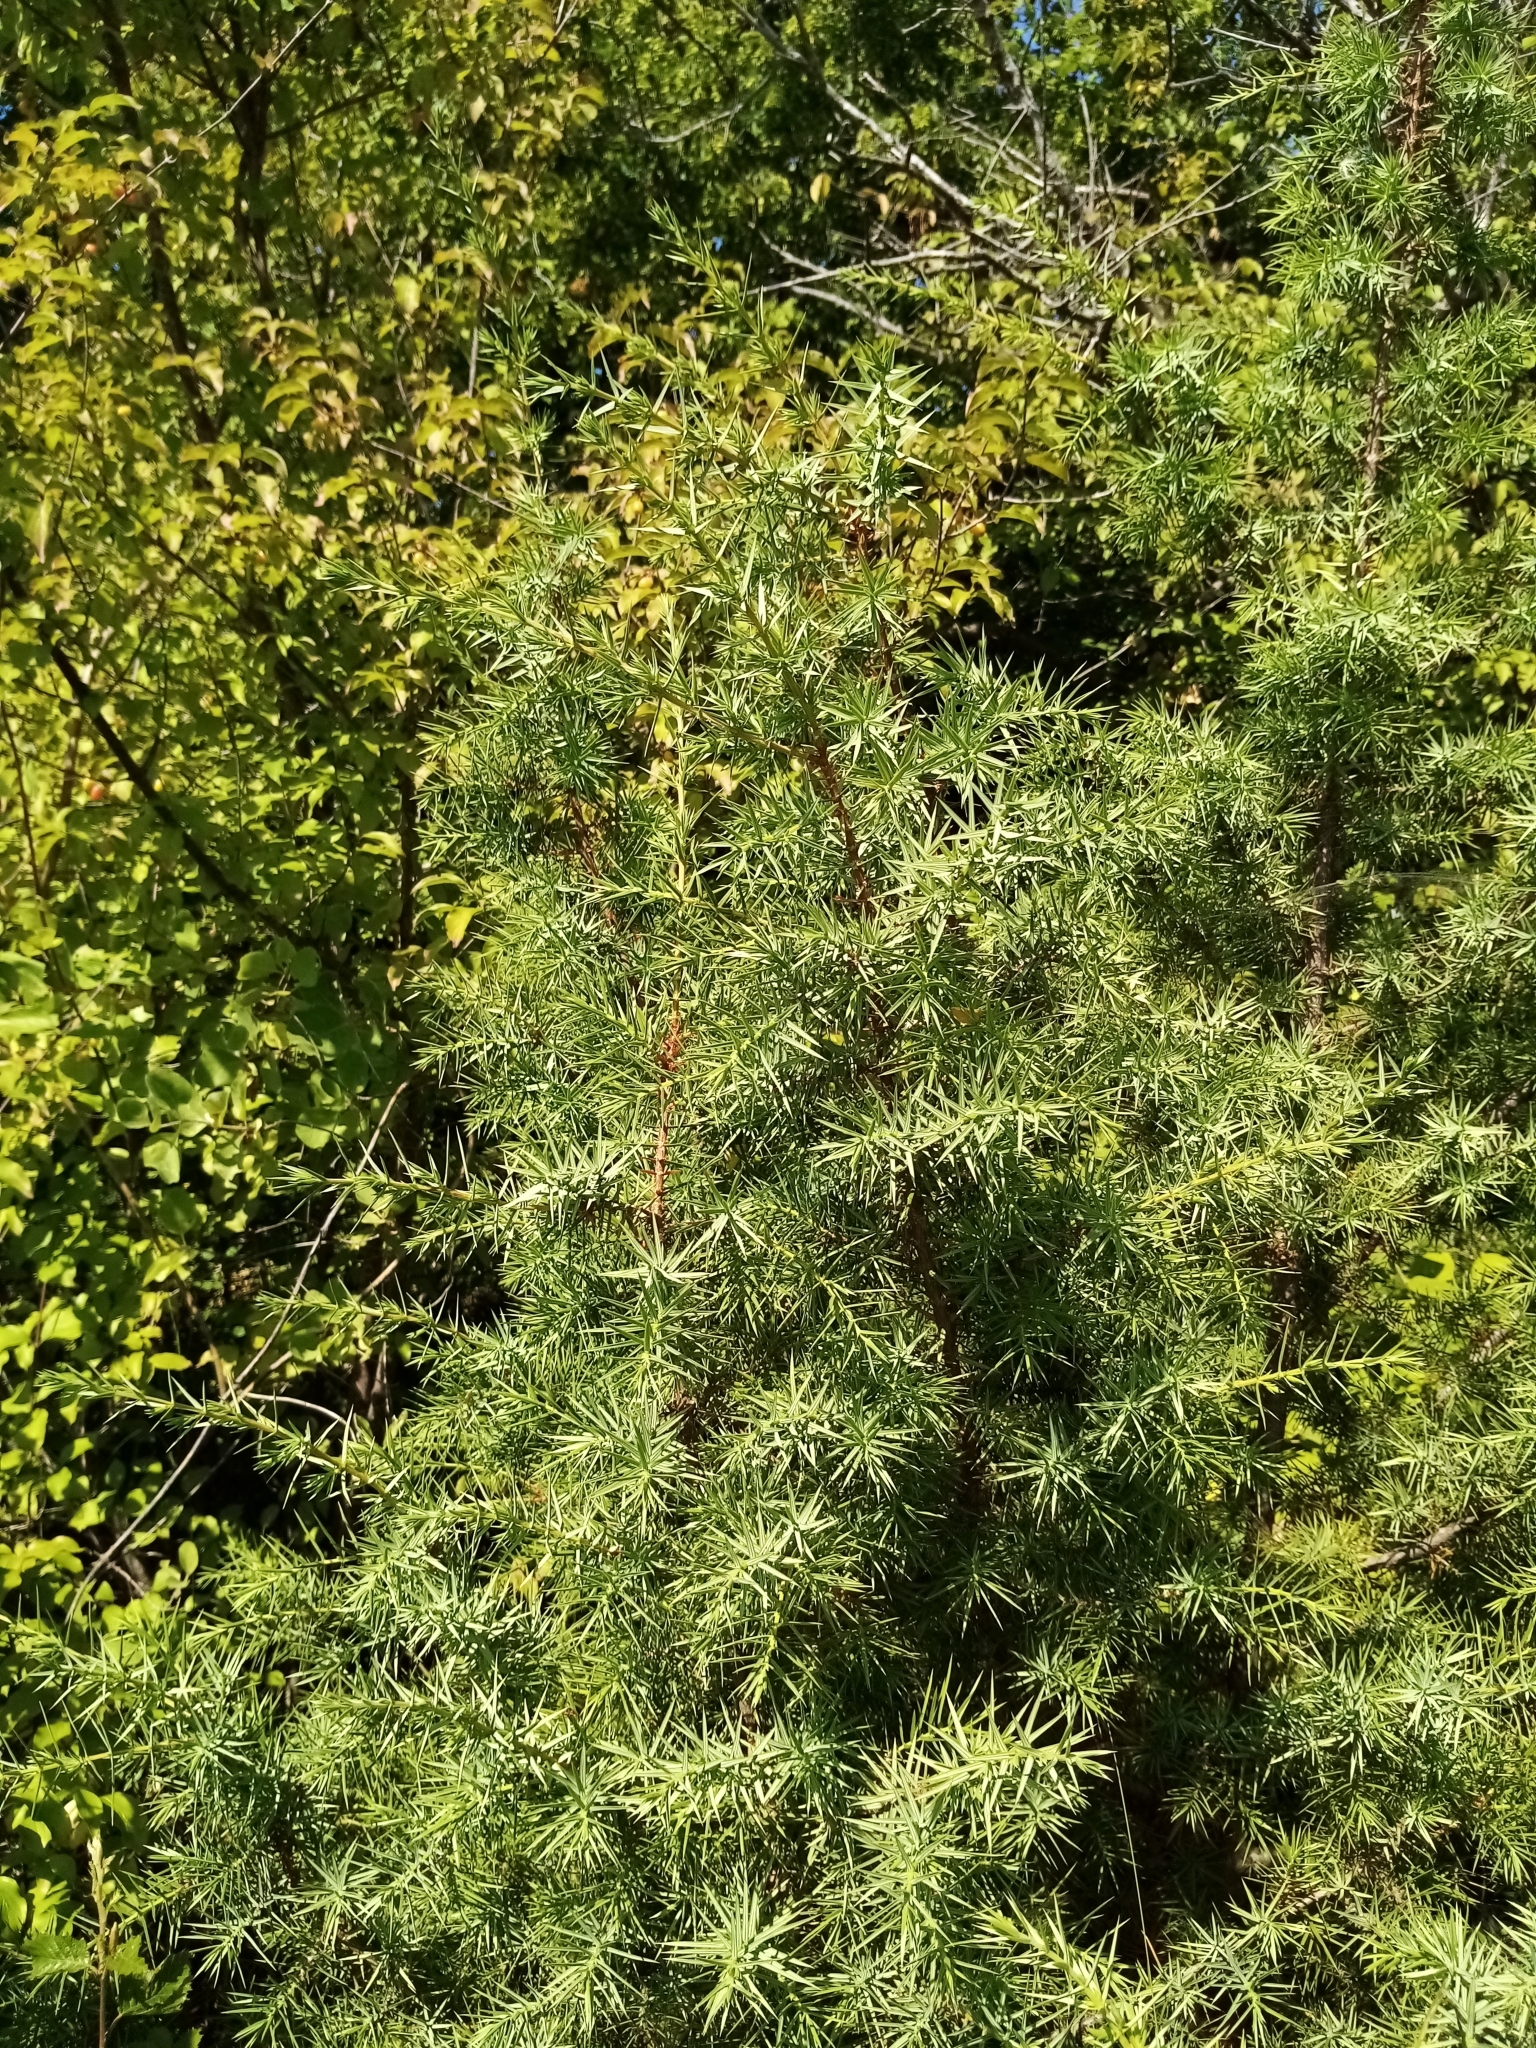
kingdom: Plantae
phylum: Tracheophyta
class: Pinopsida
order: Pinales
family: Cupressaceae
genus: Juniperus
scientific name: Juniperus oxycedrus
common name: Prickly juniper
